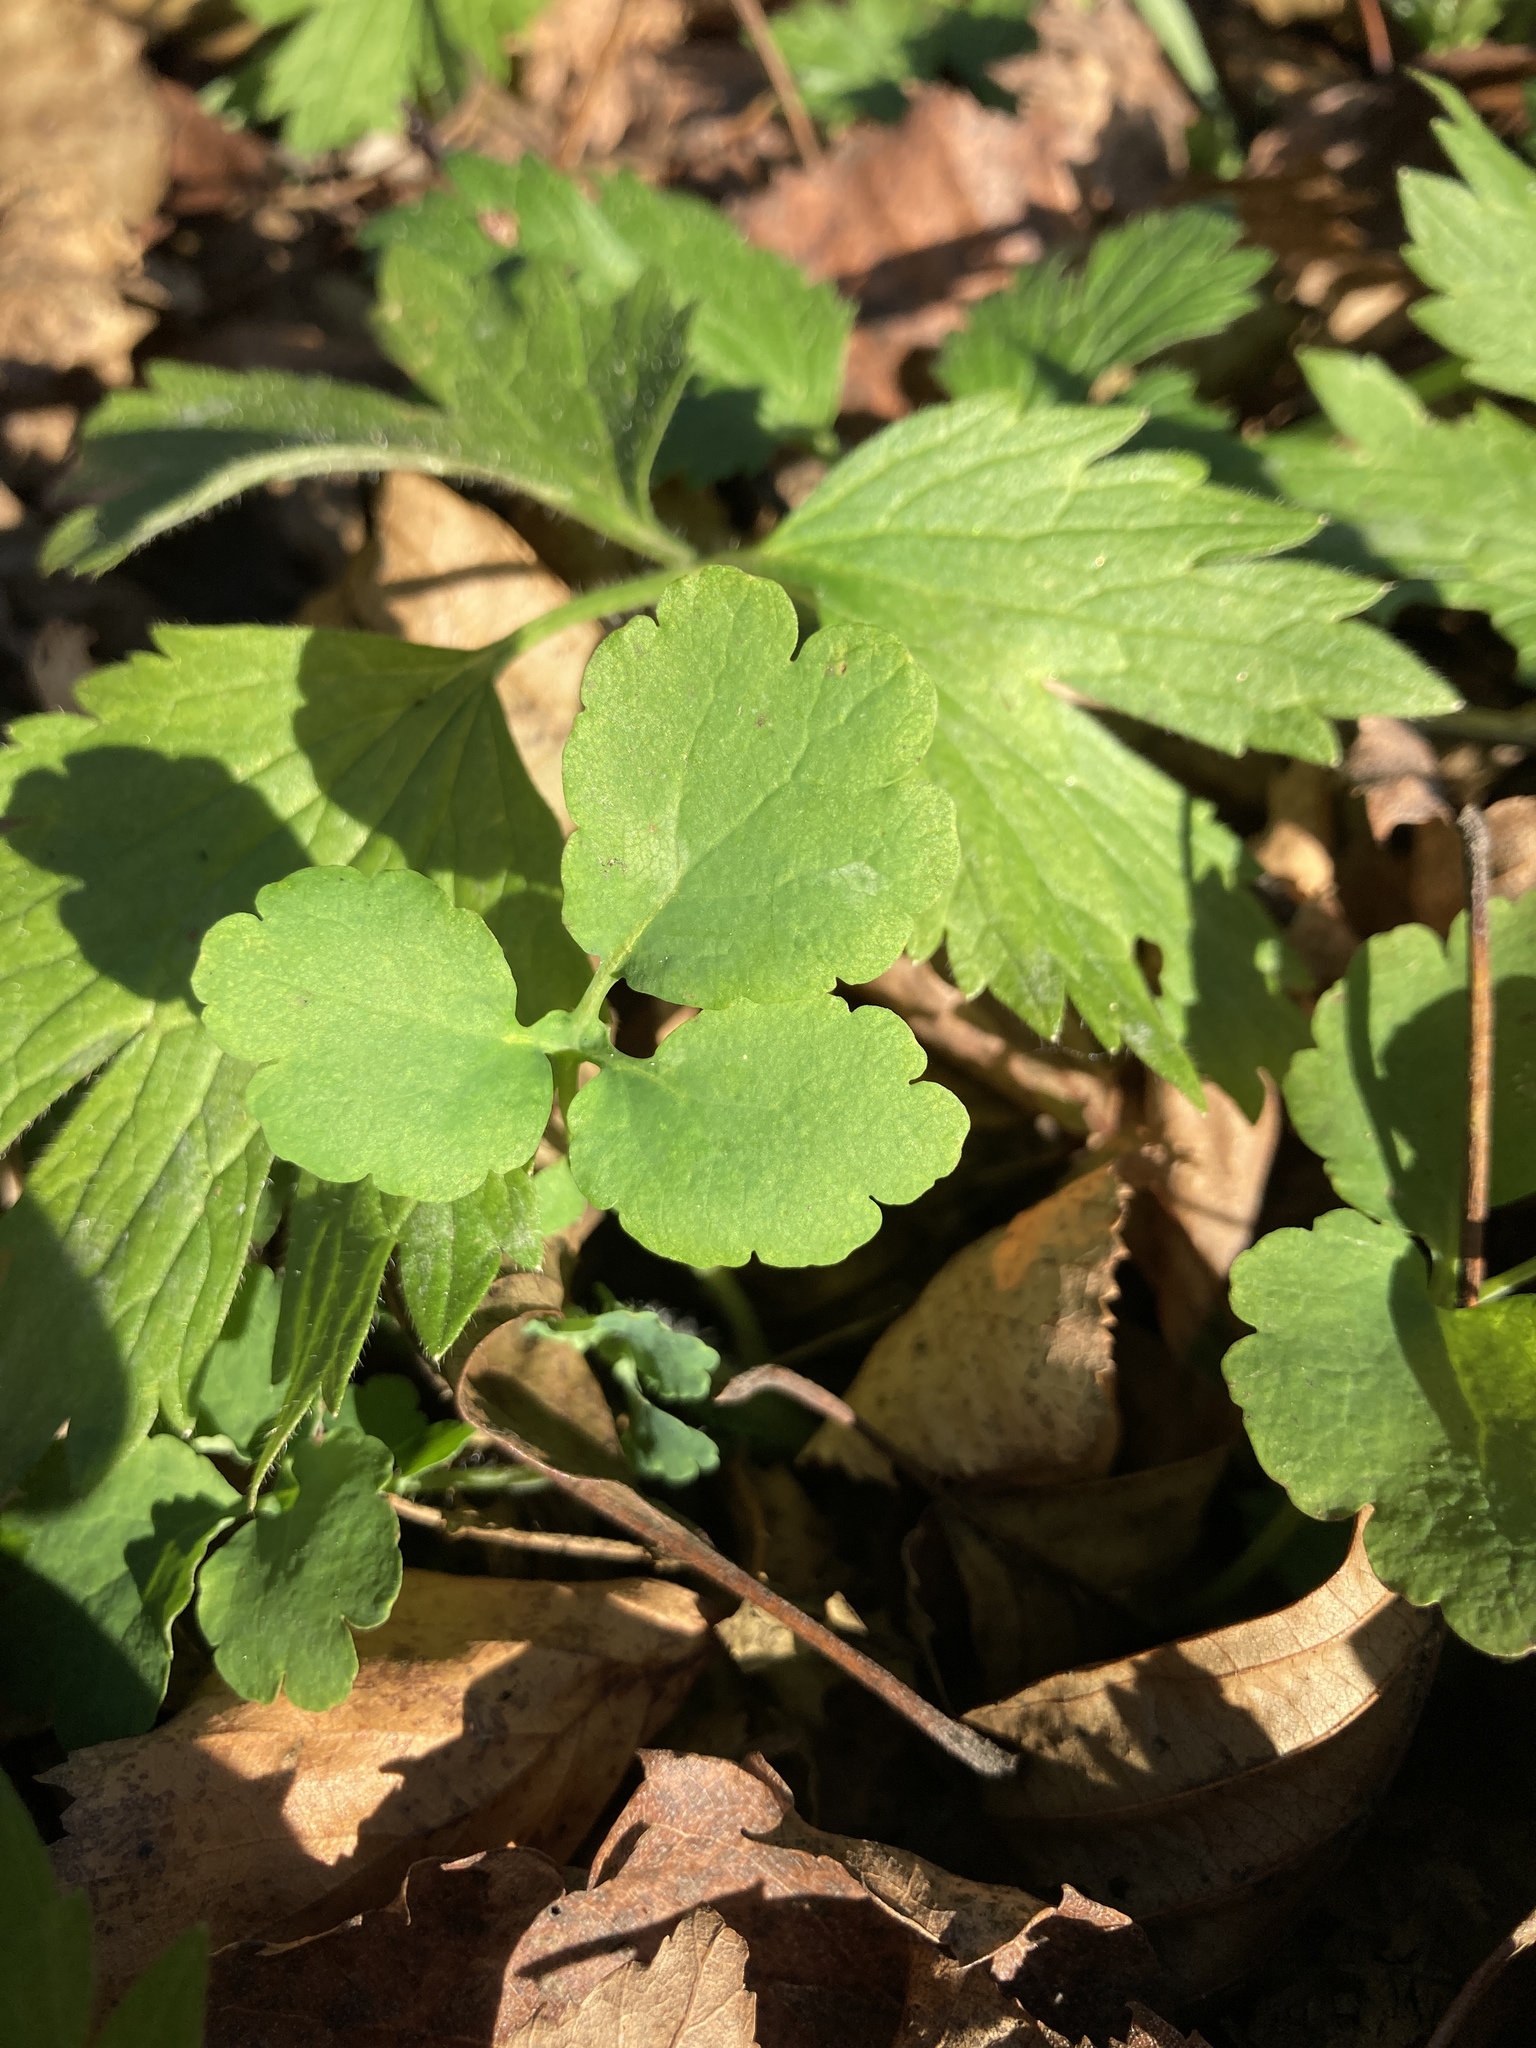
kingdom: Plantae
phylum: Tracheophyta
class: Magnoliopsida
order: Ranunculales
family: Papaveraceae
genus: Chelidonium
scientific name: Chelidonium majus
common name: Greater celandine
